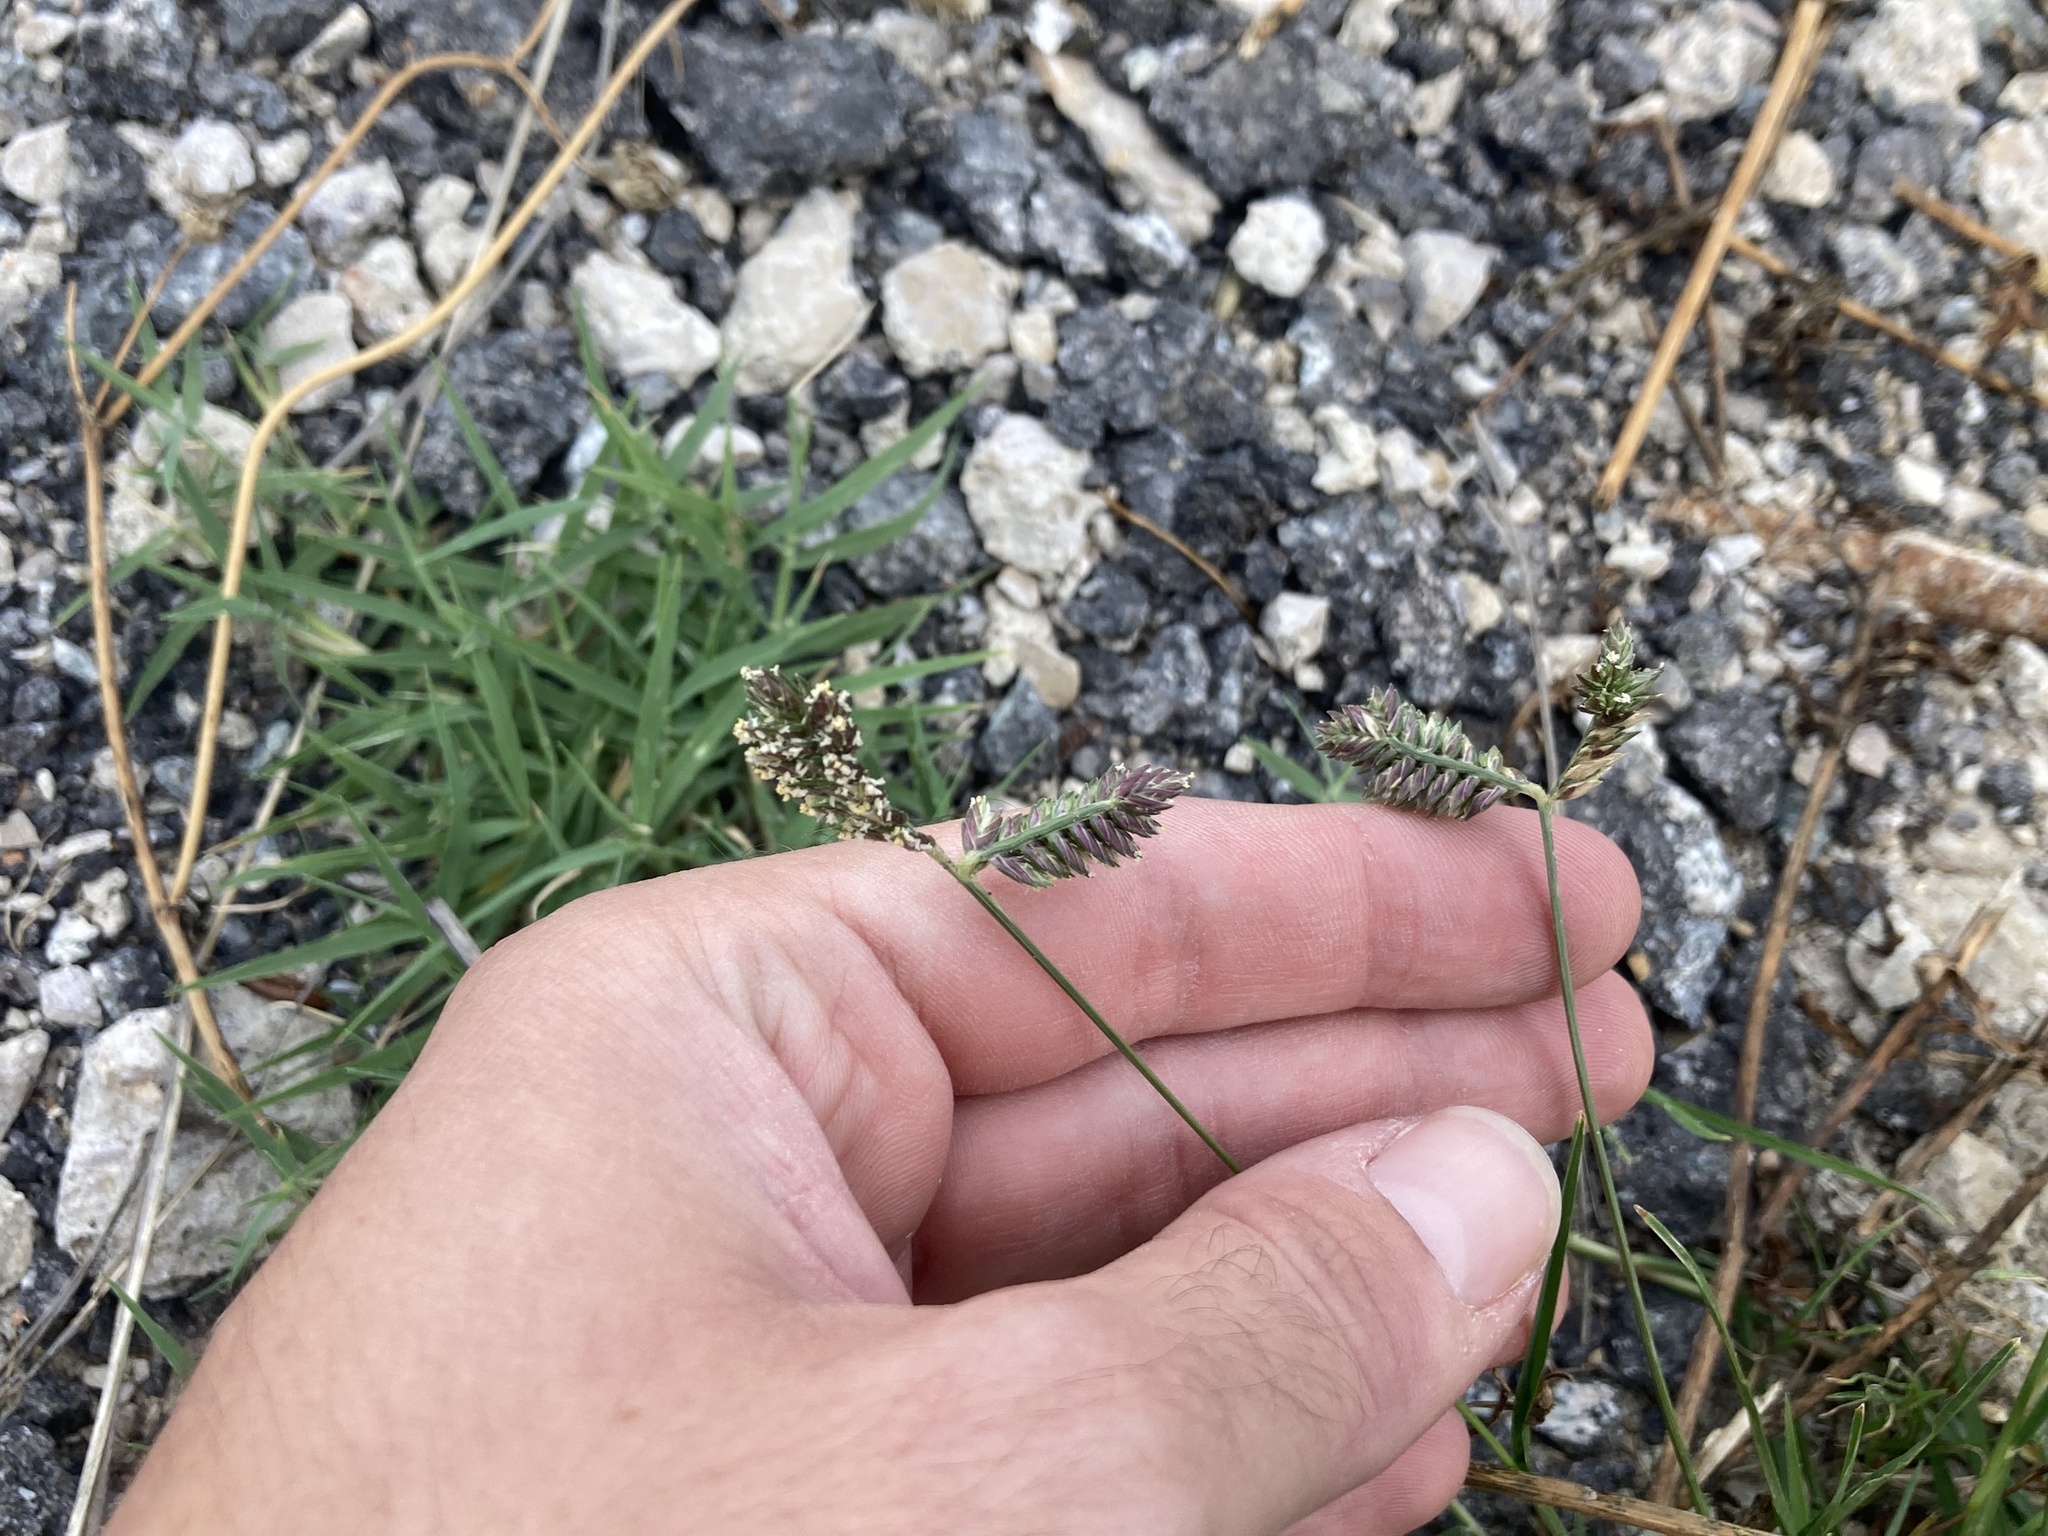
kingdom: Plantae
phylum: Tracheophyta
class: Liliopsida
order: Poales
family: Poaceae
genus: Eleusine
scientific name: Eleusine tristachya
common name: American yard-grass
